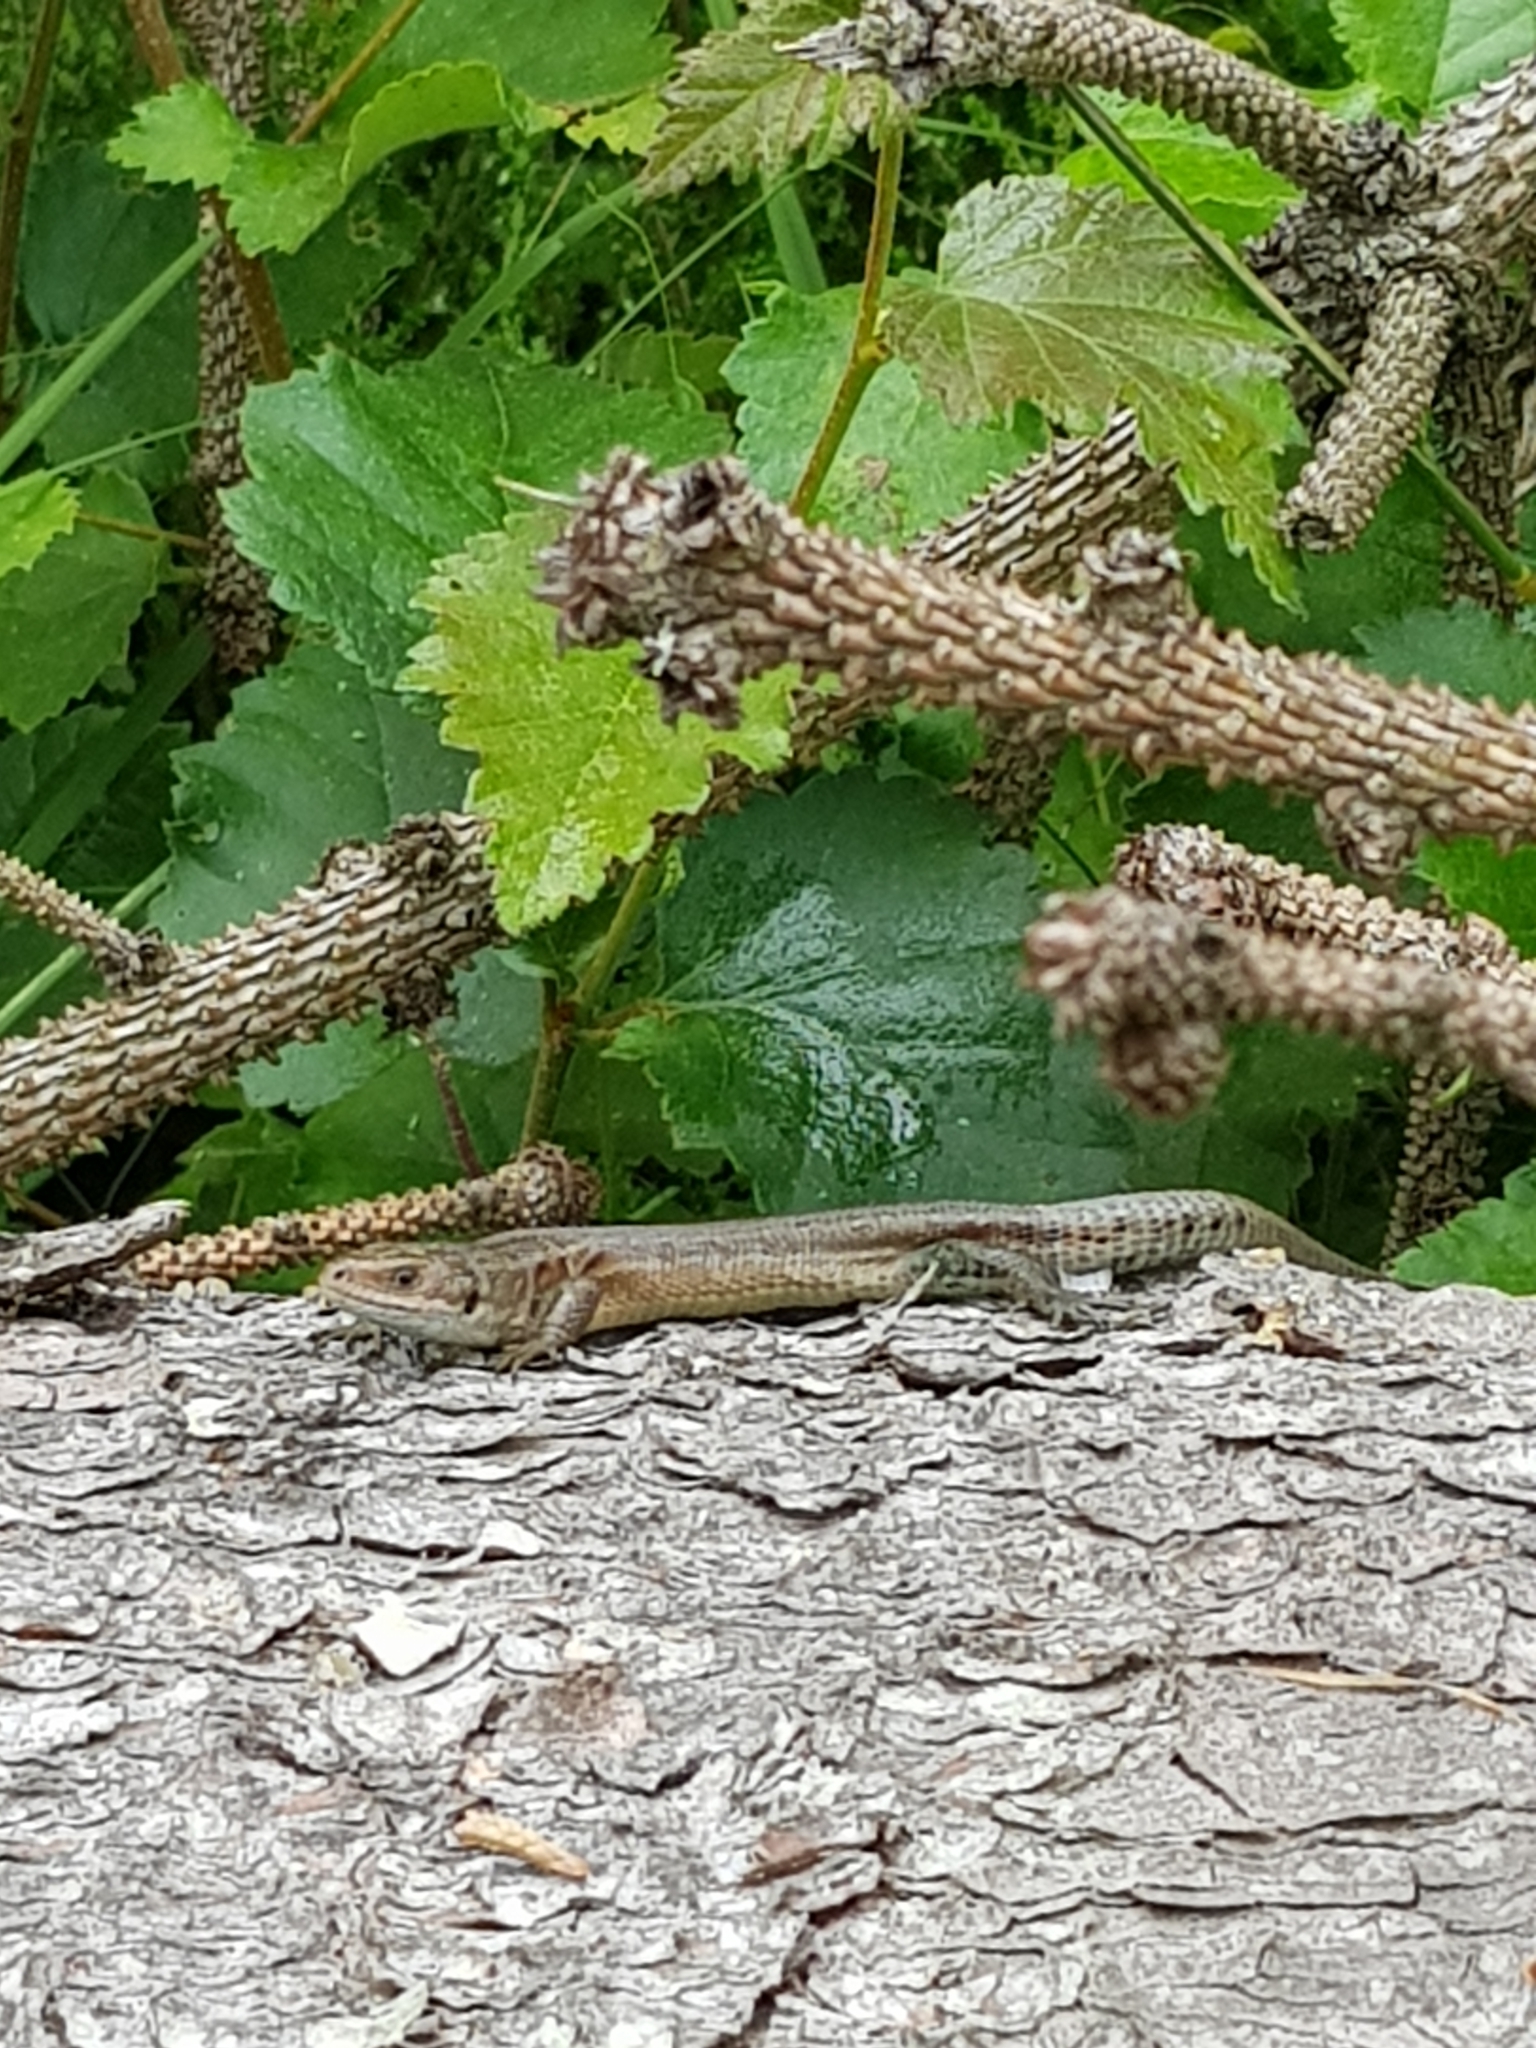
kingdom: Animalia
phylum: Chordata
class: Squamata
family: Lacertidae
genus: Zootoca
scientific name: Zootoca vivipara
